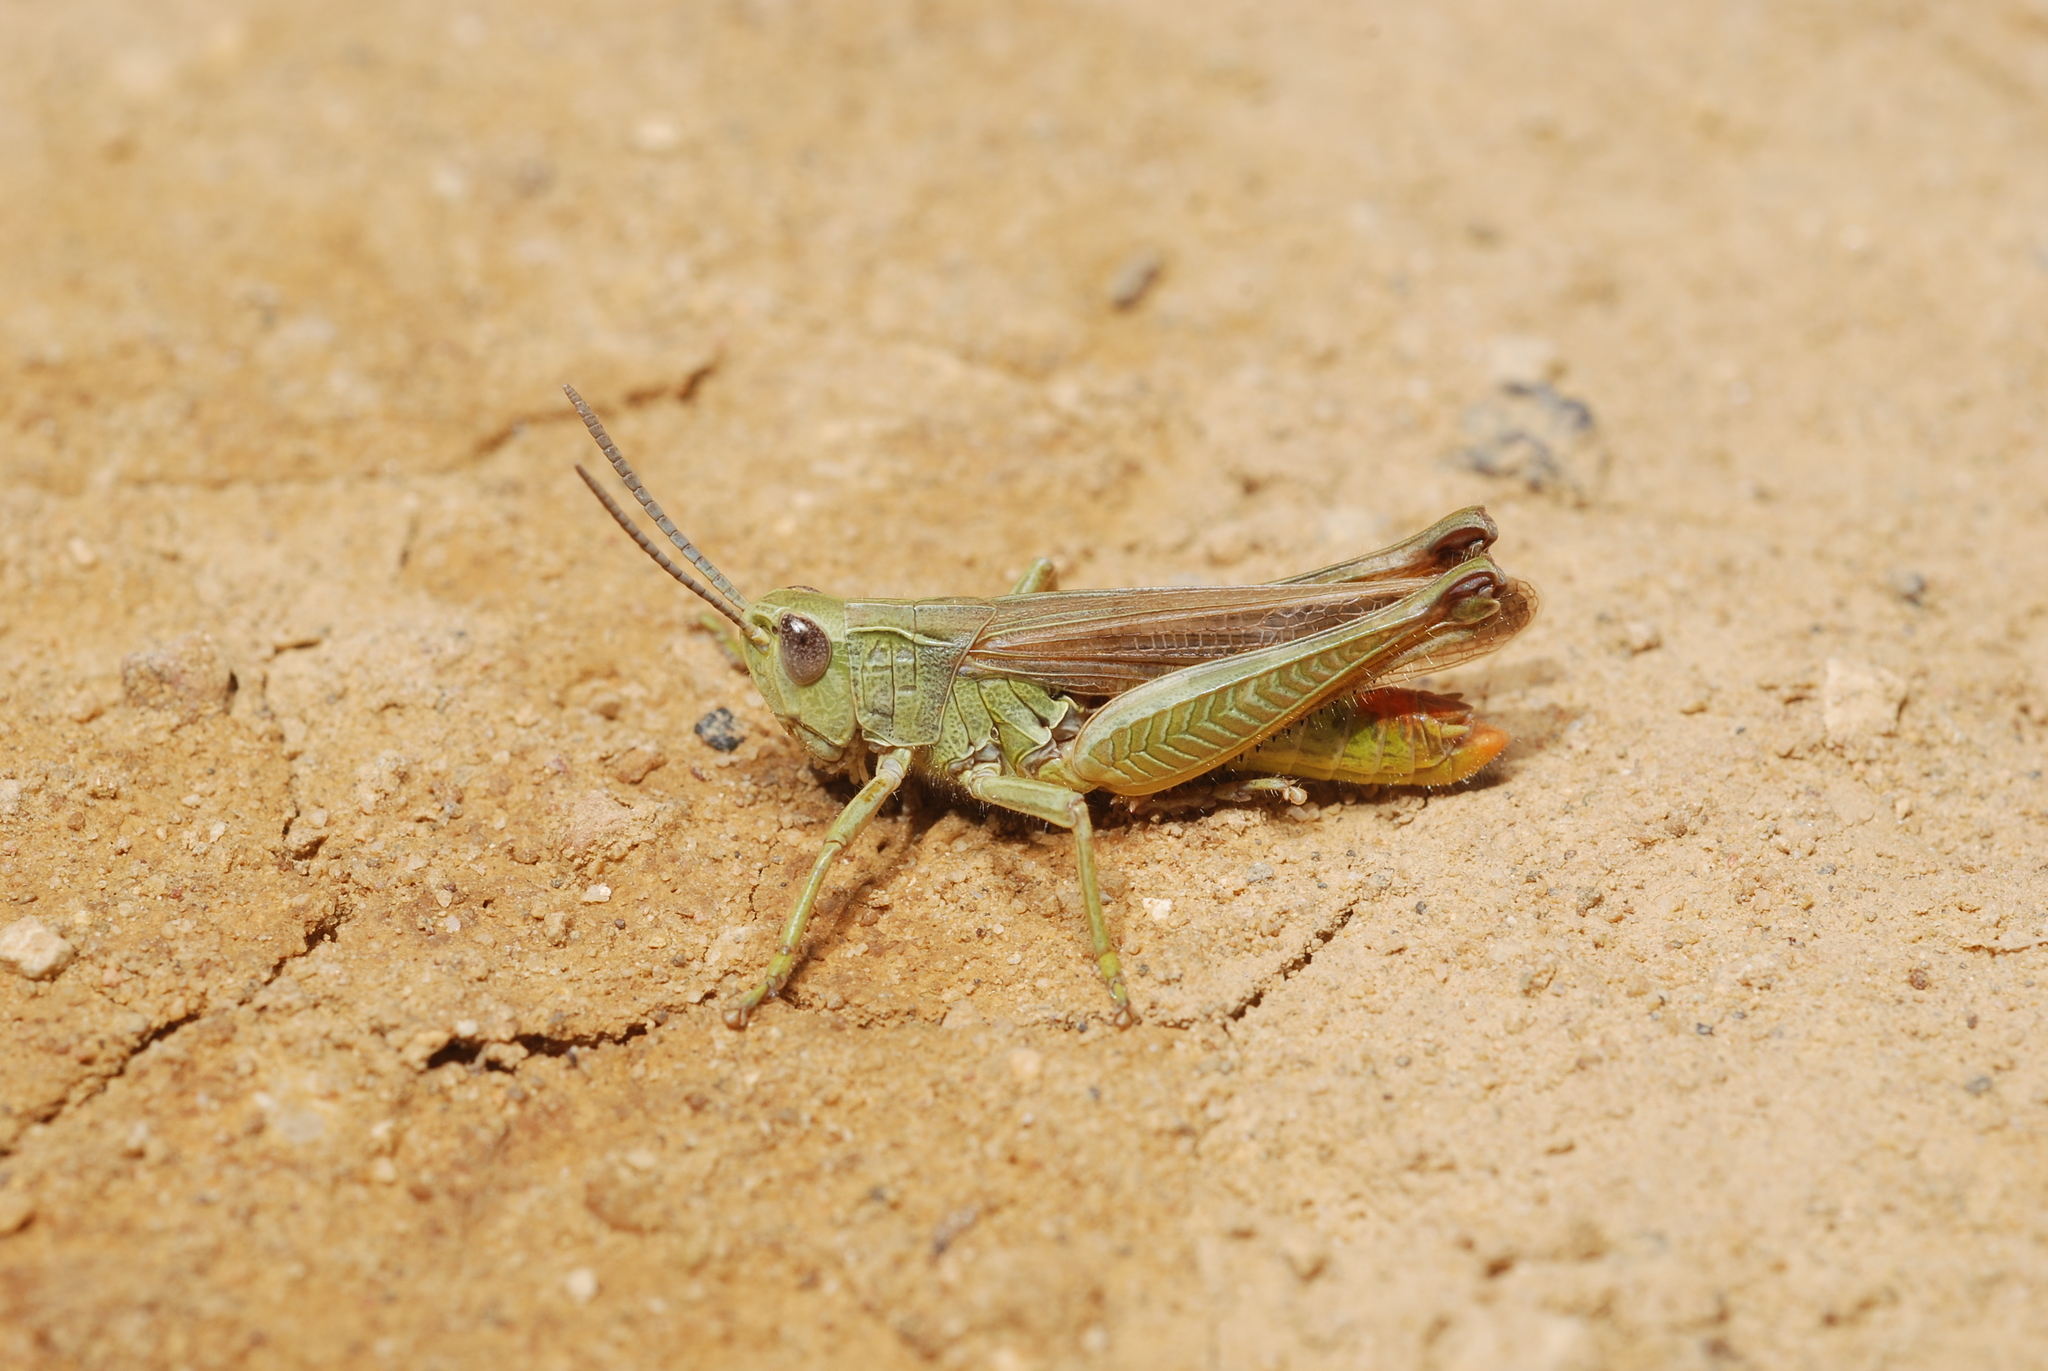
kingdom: Animalia
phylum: Arthropoda
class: Insecta
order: Orthoptera
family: Acrididae
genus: Chorthippus
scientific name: Chorthippus apicalis
